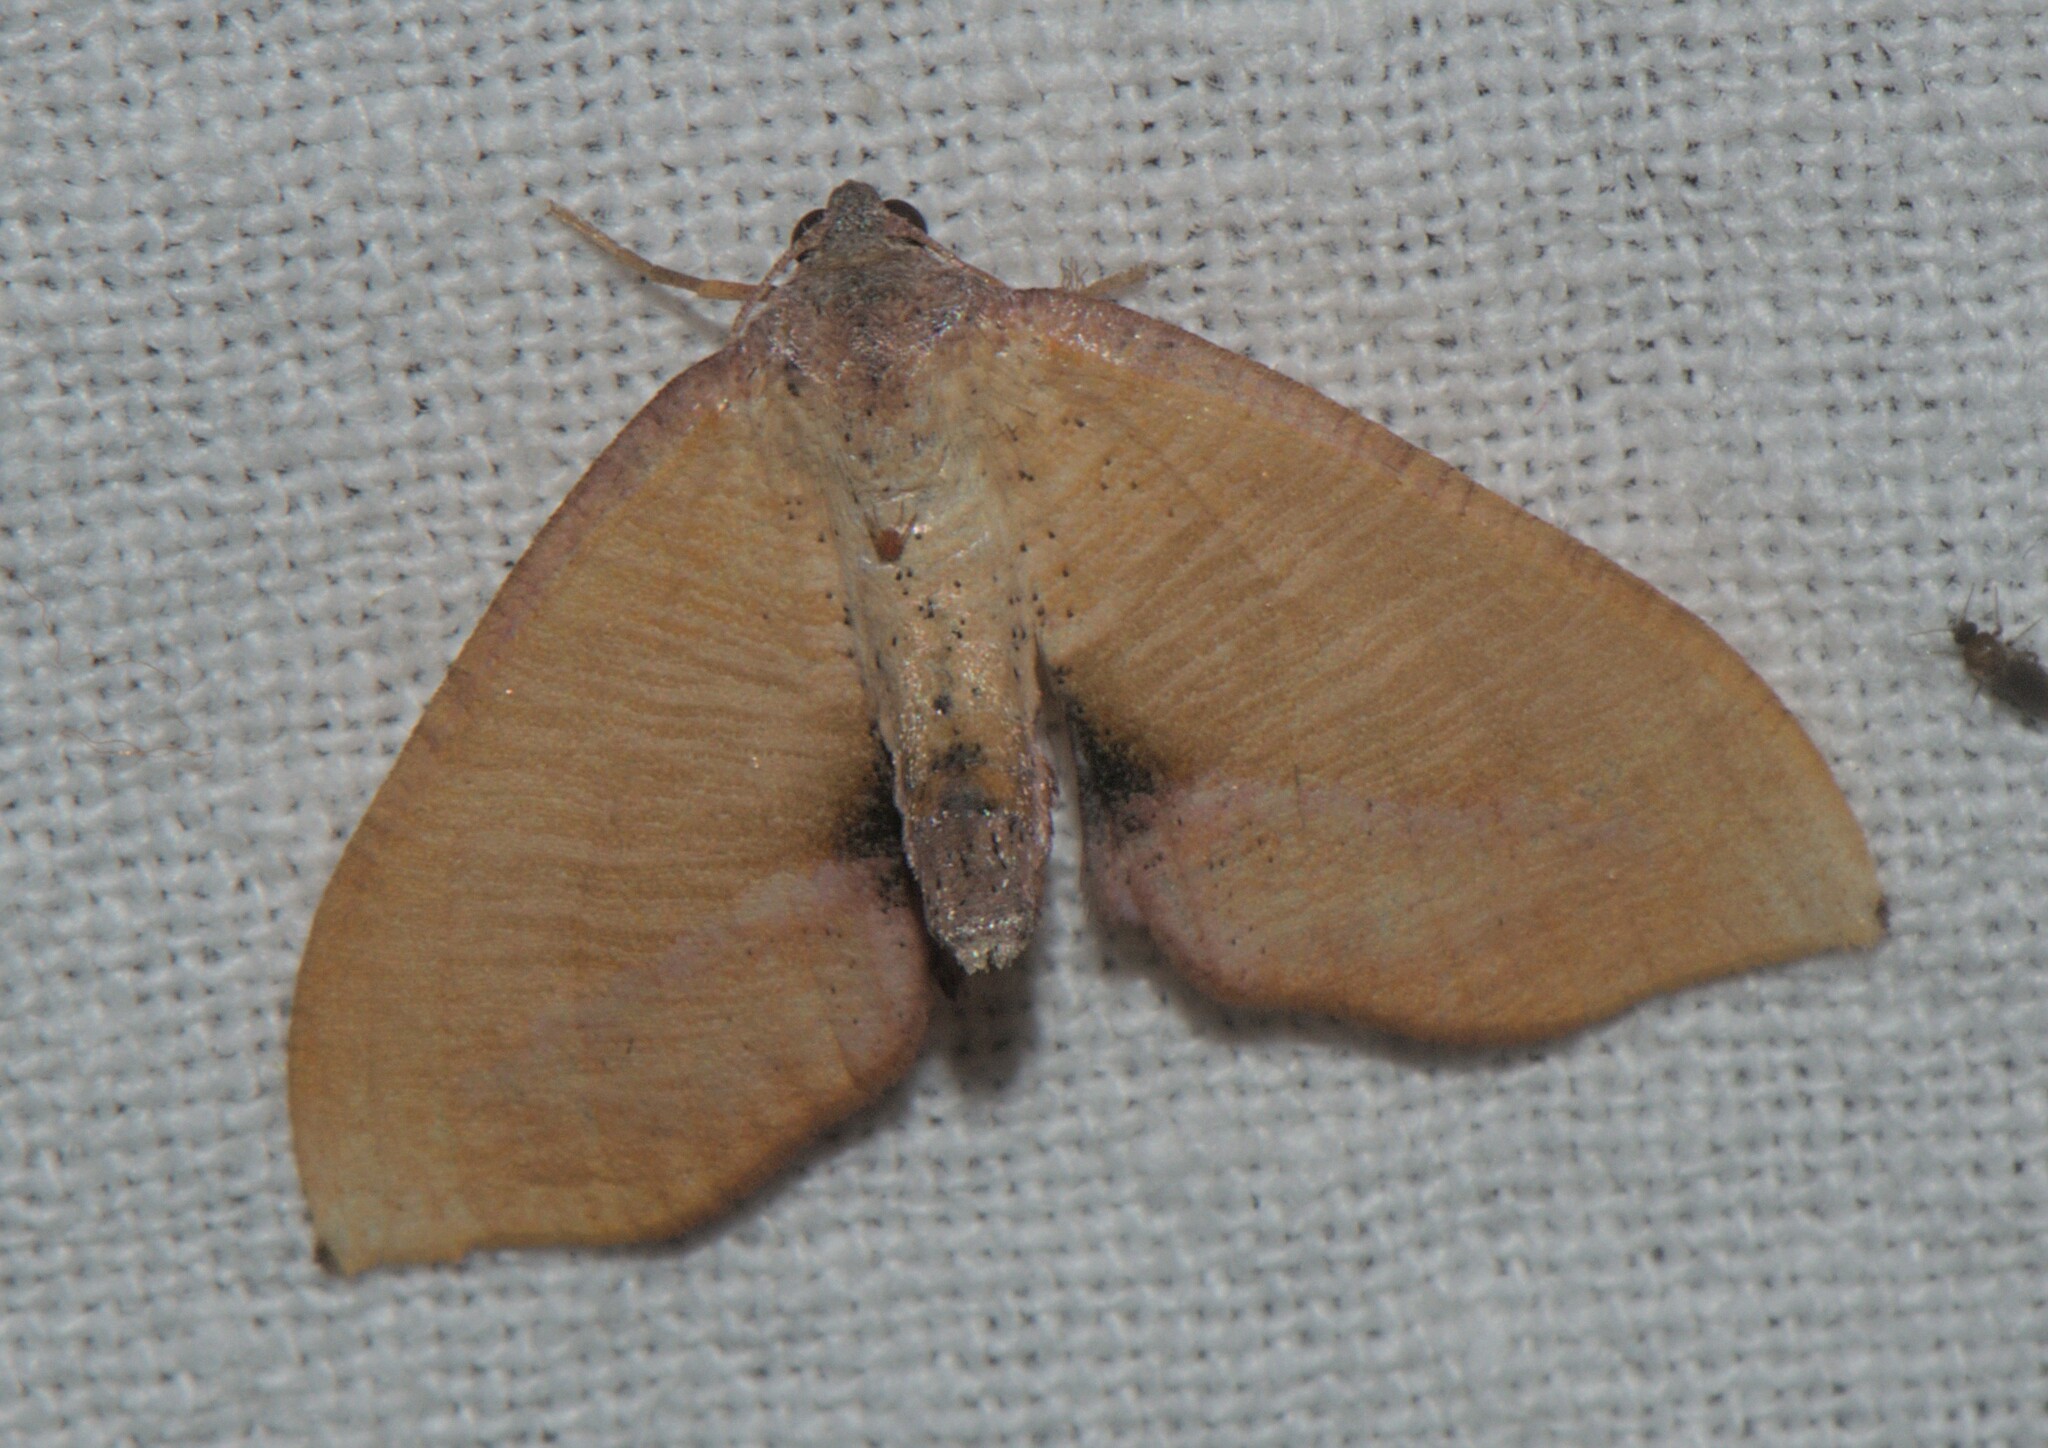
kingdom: Animalia
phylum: Arthropoda
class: Insecta
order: Lepidoptera
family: Geometridae
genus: Plagodis
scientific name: Plagodis inustaria
